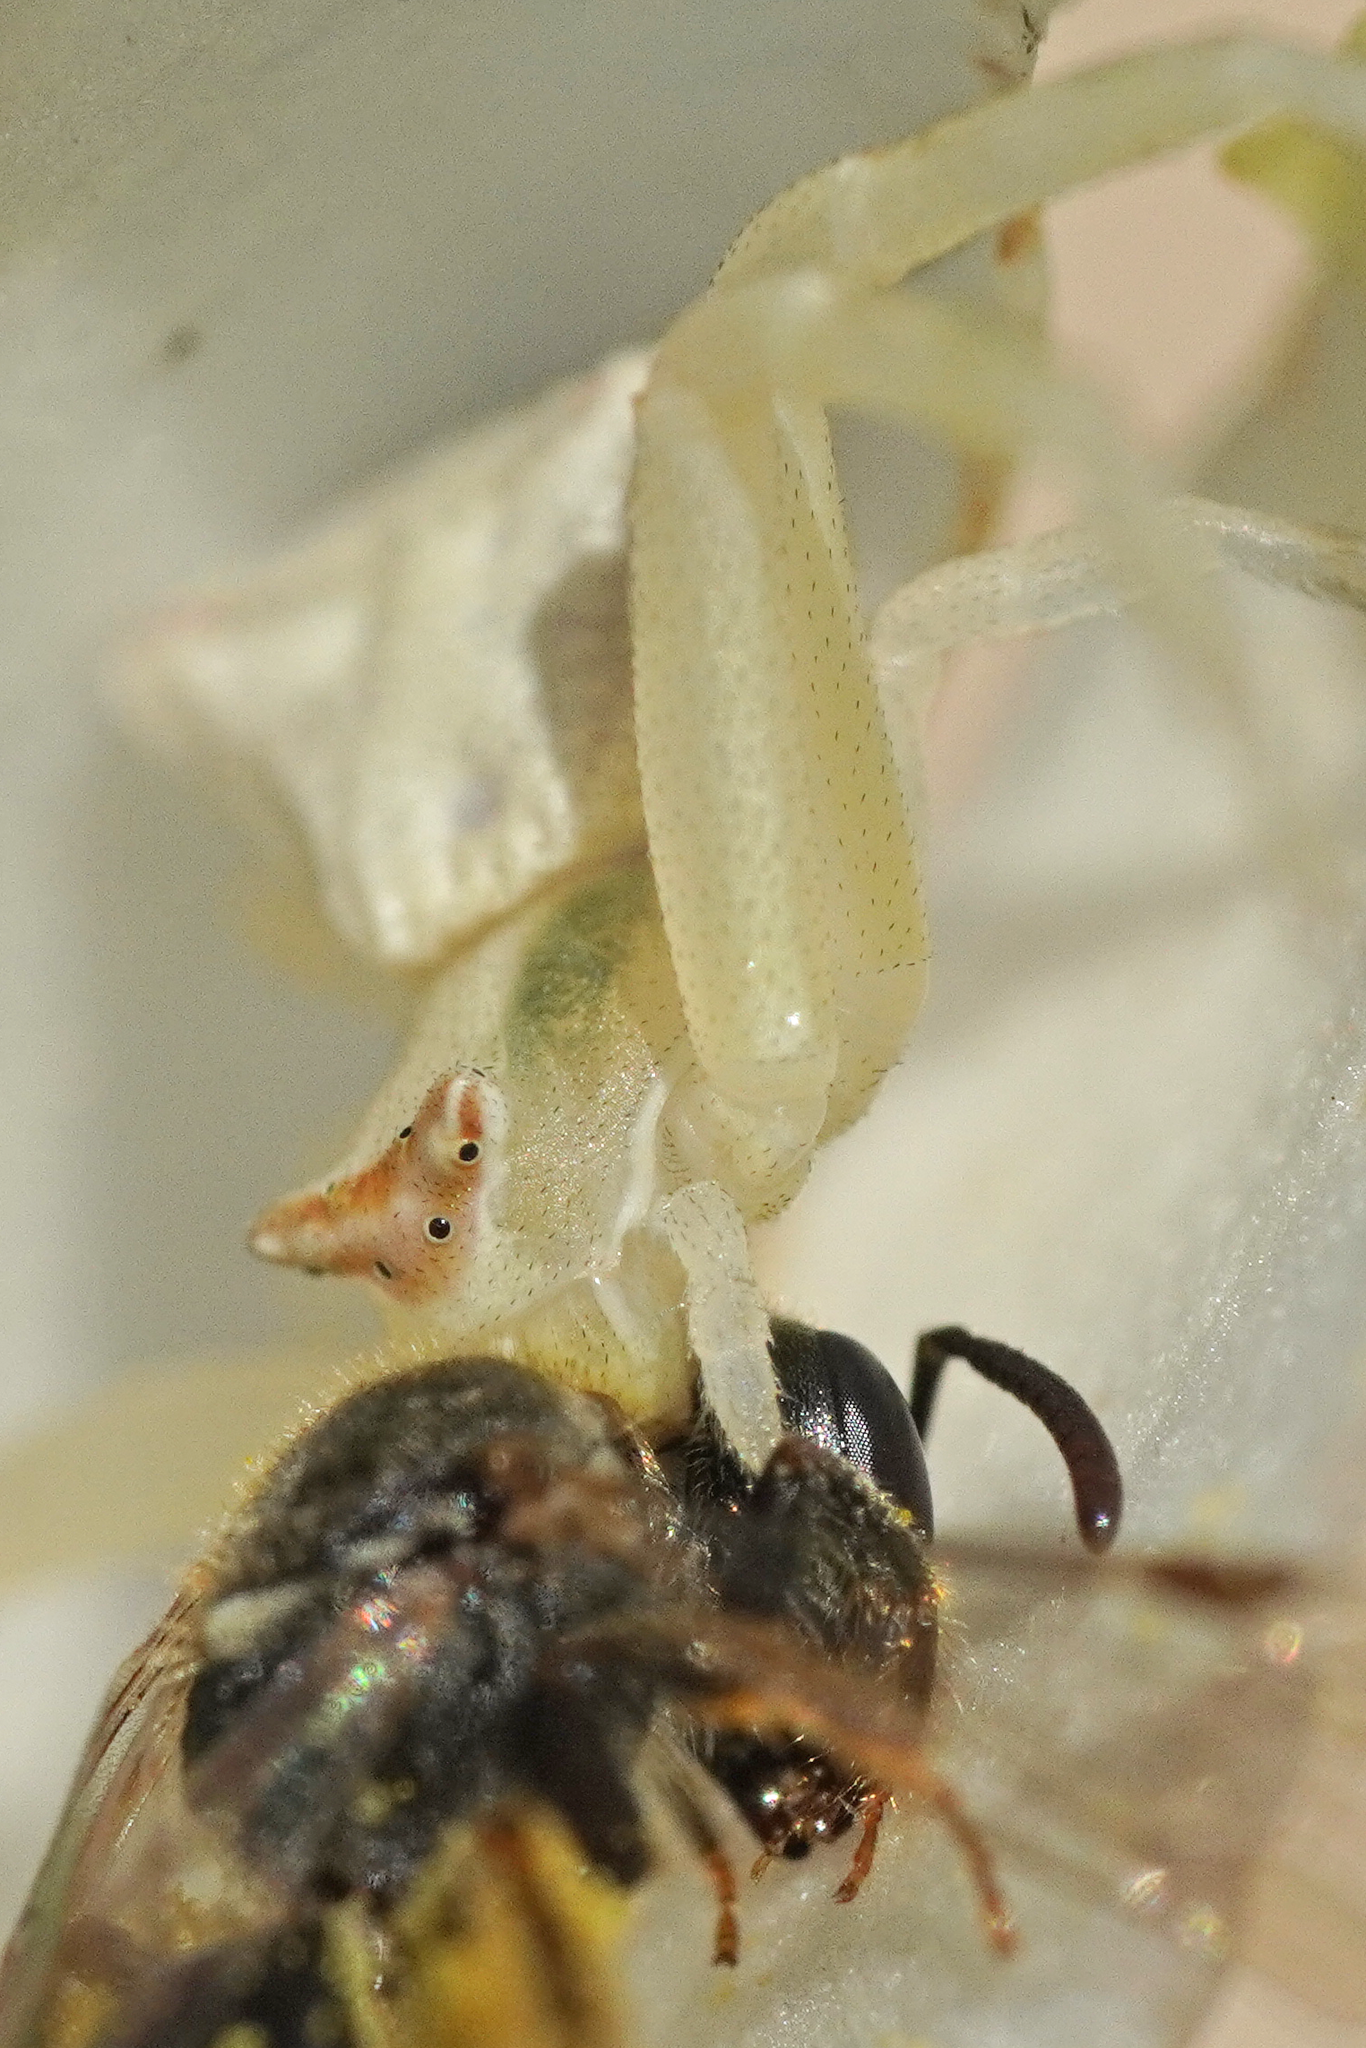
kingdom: Animalia
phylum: Arthropoda
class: Arachnida
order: Araneae
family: Thomisidae
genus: Thomisus
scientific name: Thomisus onustus
